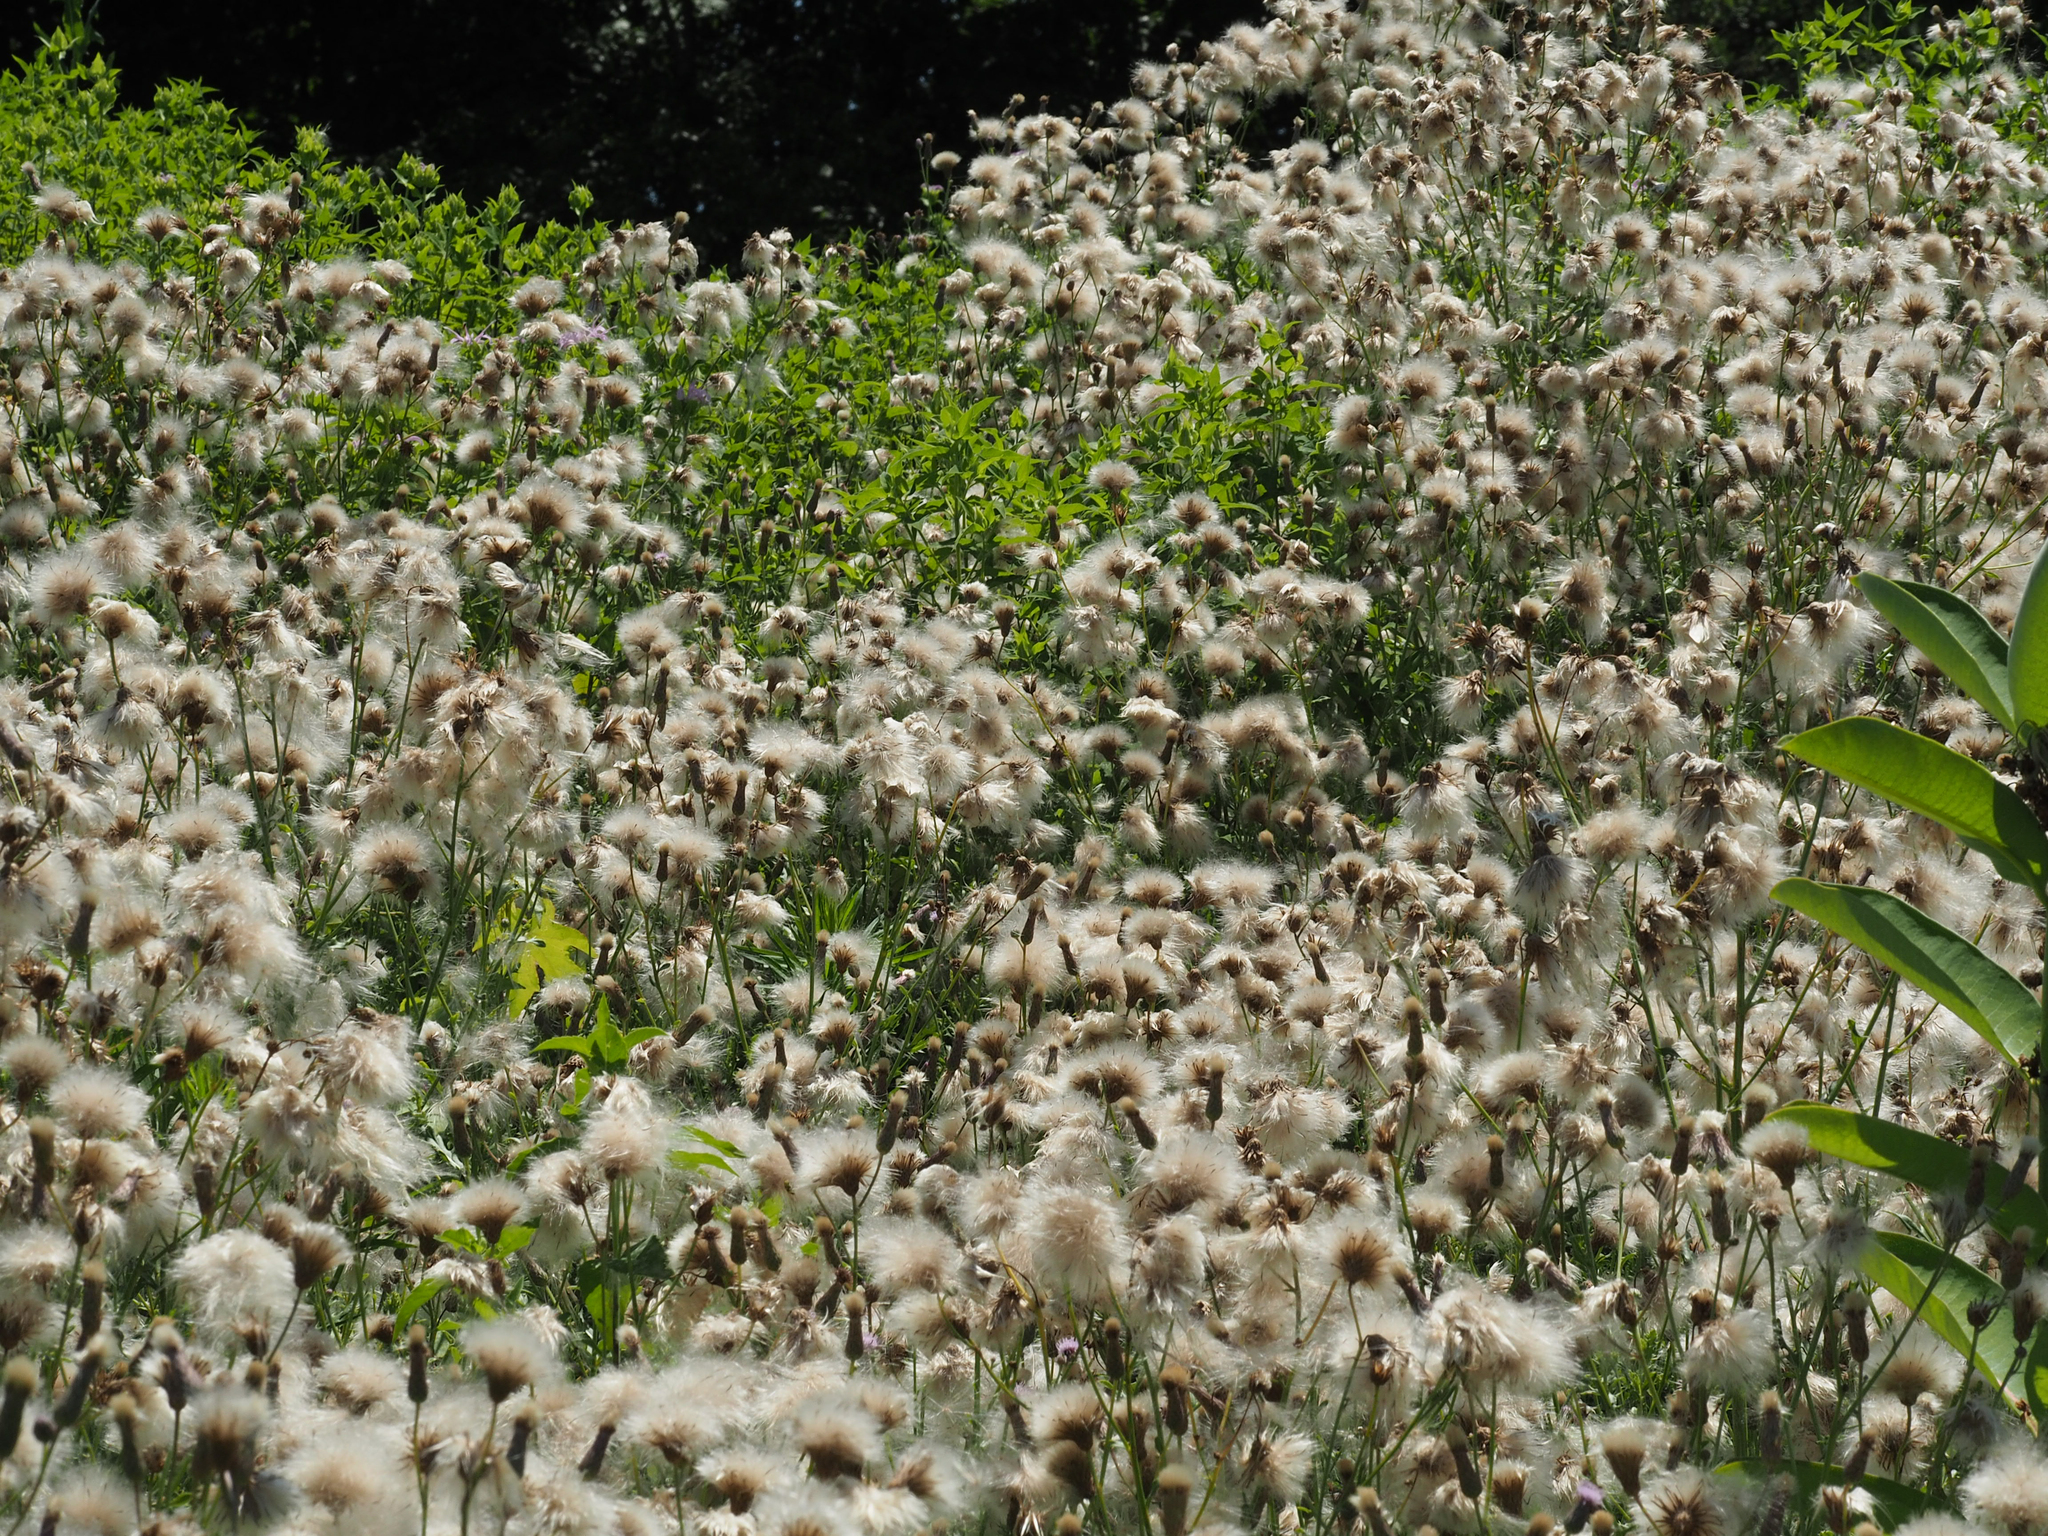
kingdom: Plantae
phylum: Tracheophyta
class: Magnoliopsida
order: Asterales
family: Asteraceae
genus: Cirsium
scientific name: Cirsium arvense
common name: Creeping thistle
